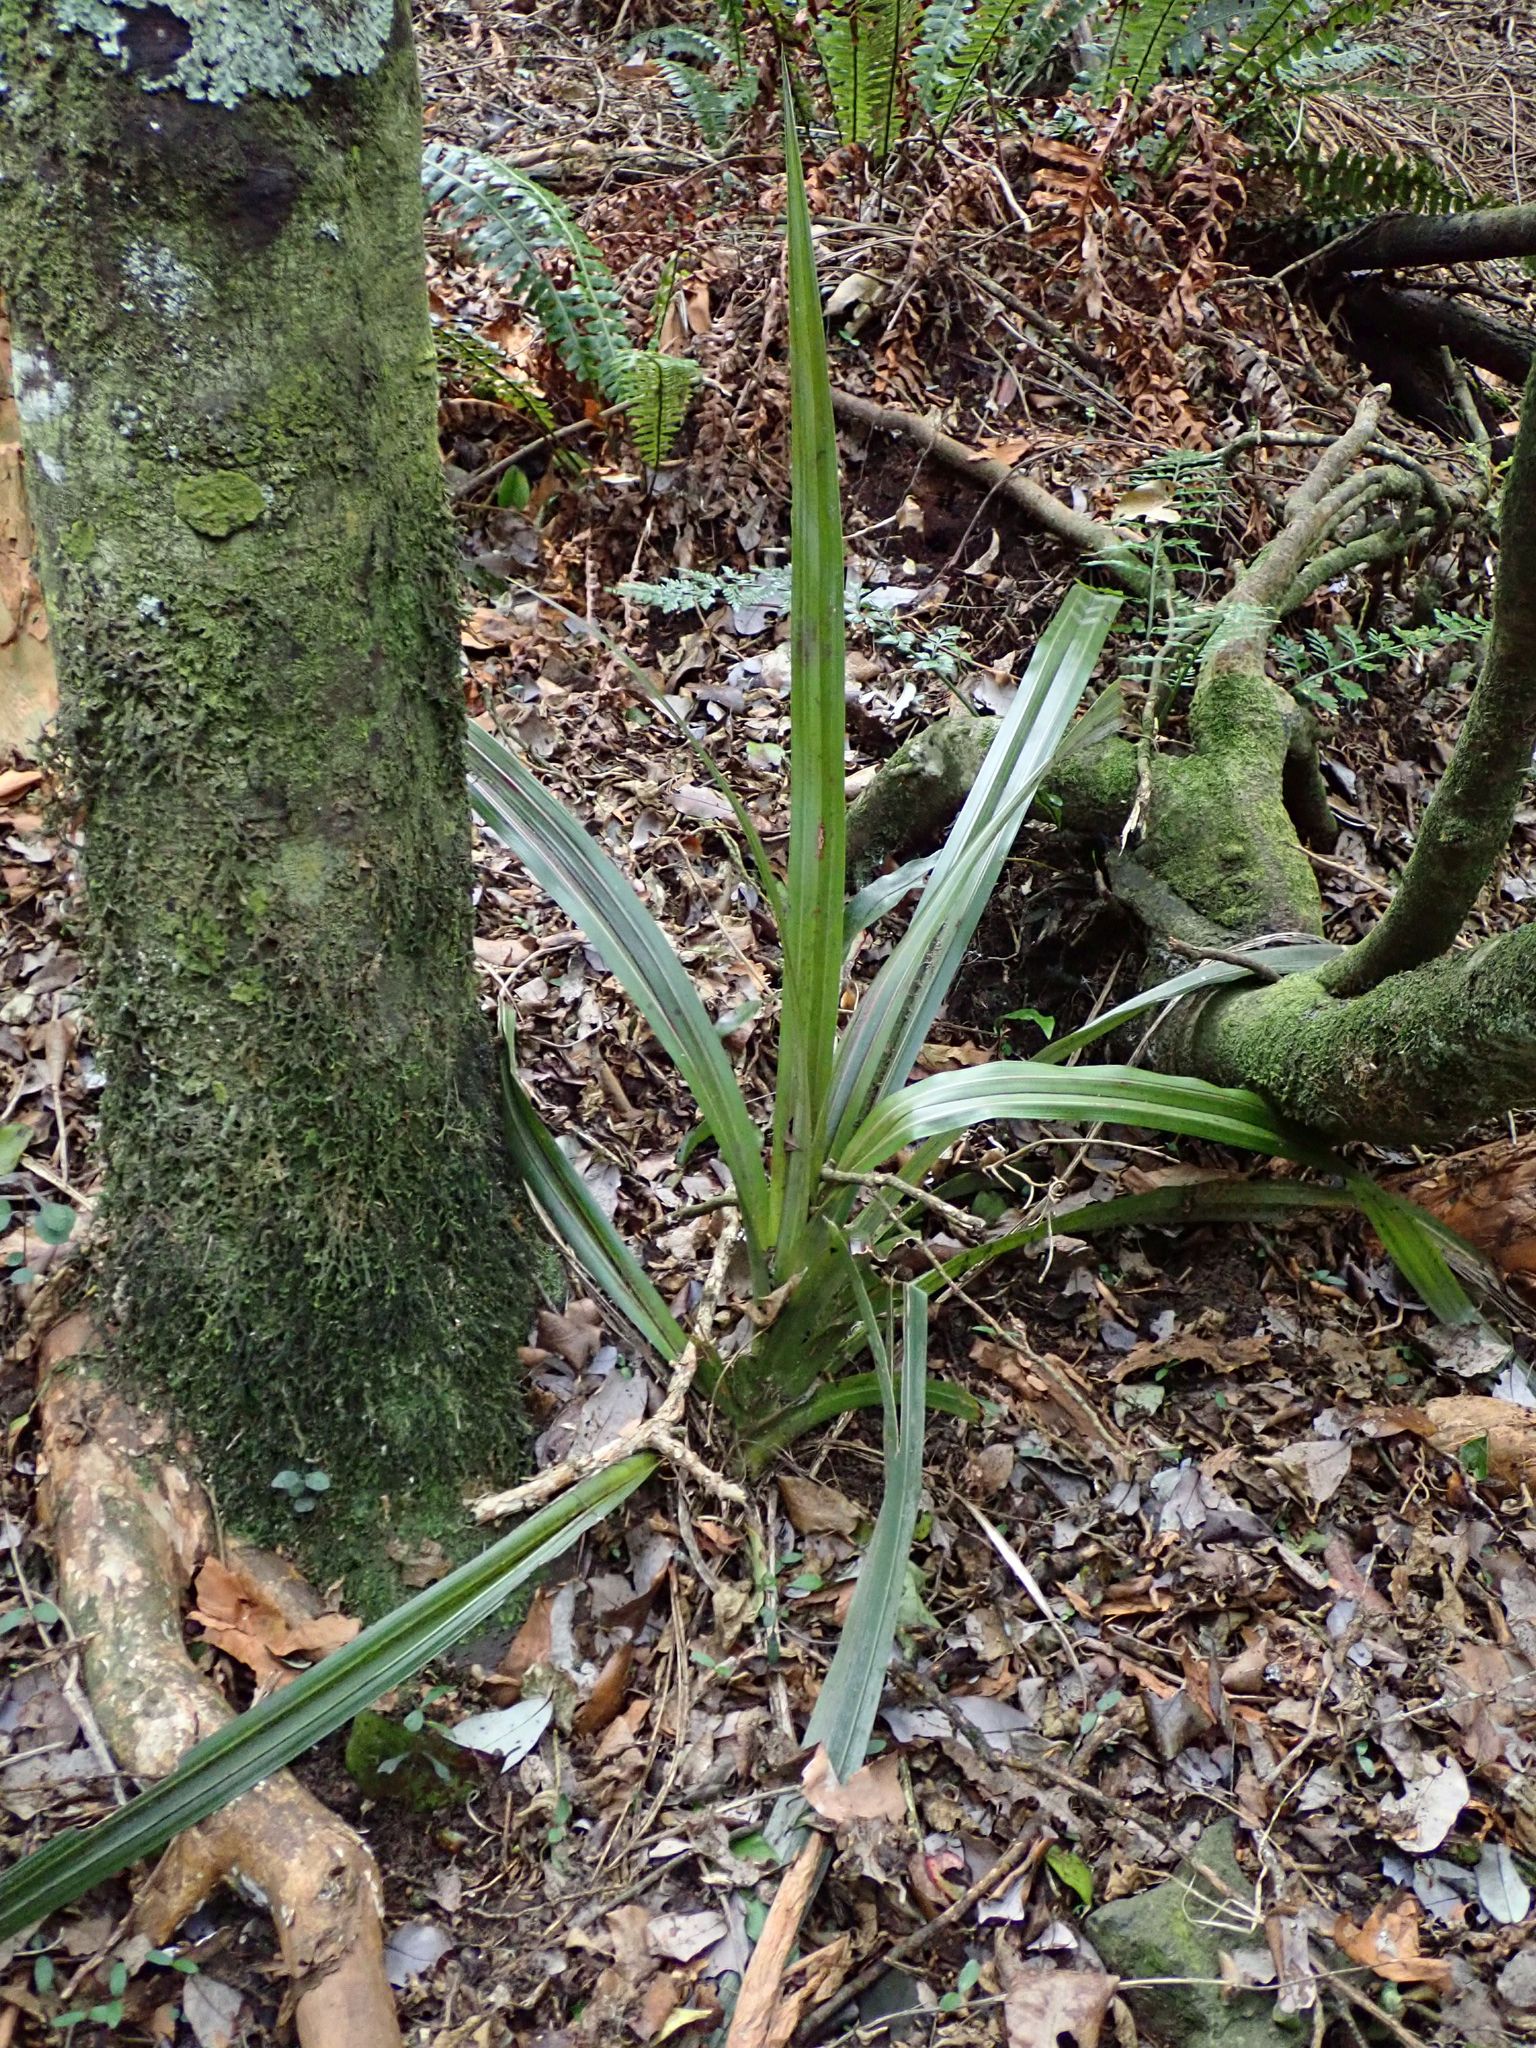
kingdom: Plantae
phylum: Tracheophyta
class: Liliopsida
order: Asparagales
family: Asteliaceae
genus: Astelia
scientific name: Astelia fragrans
